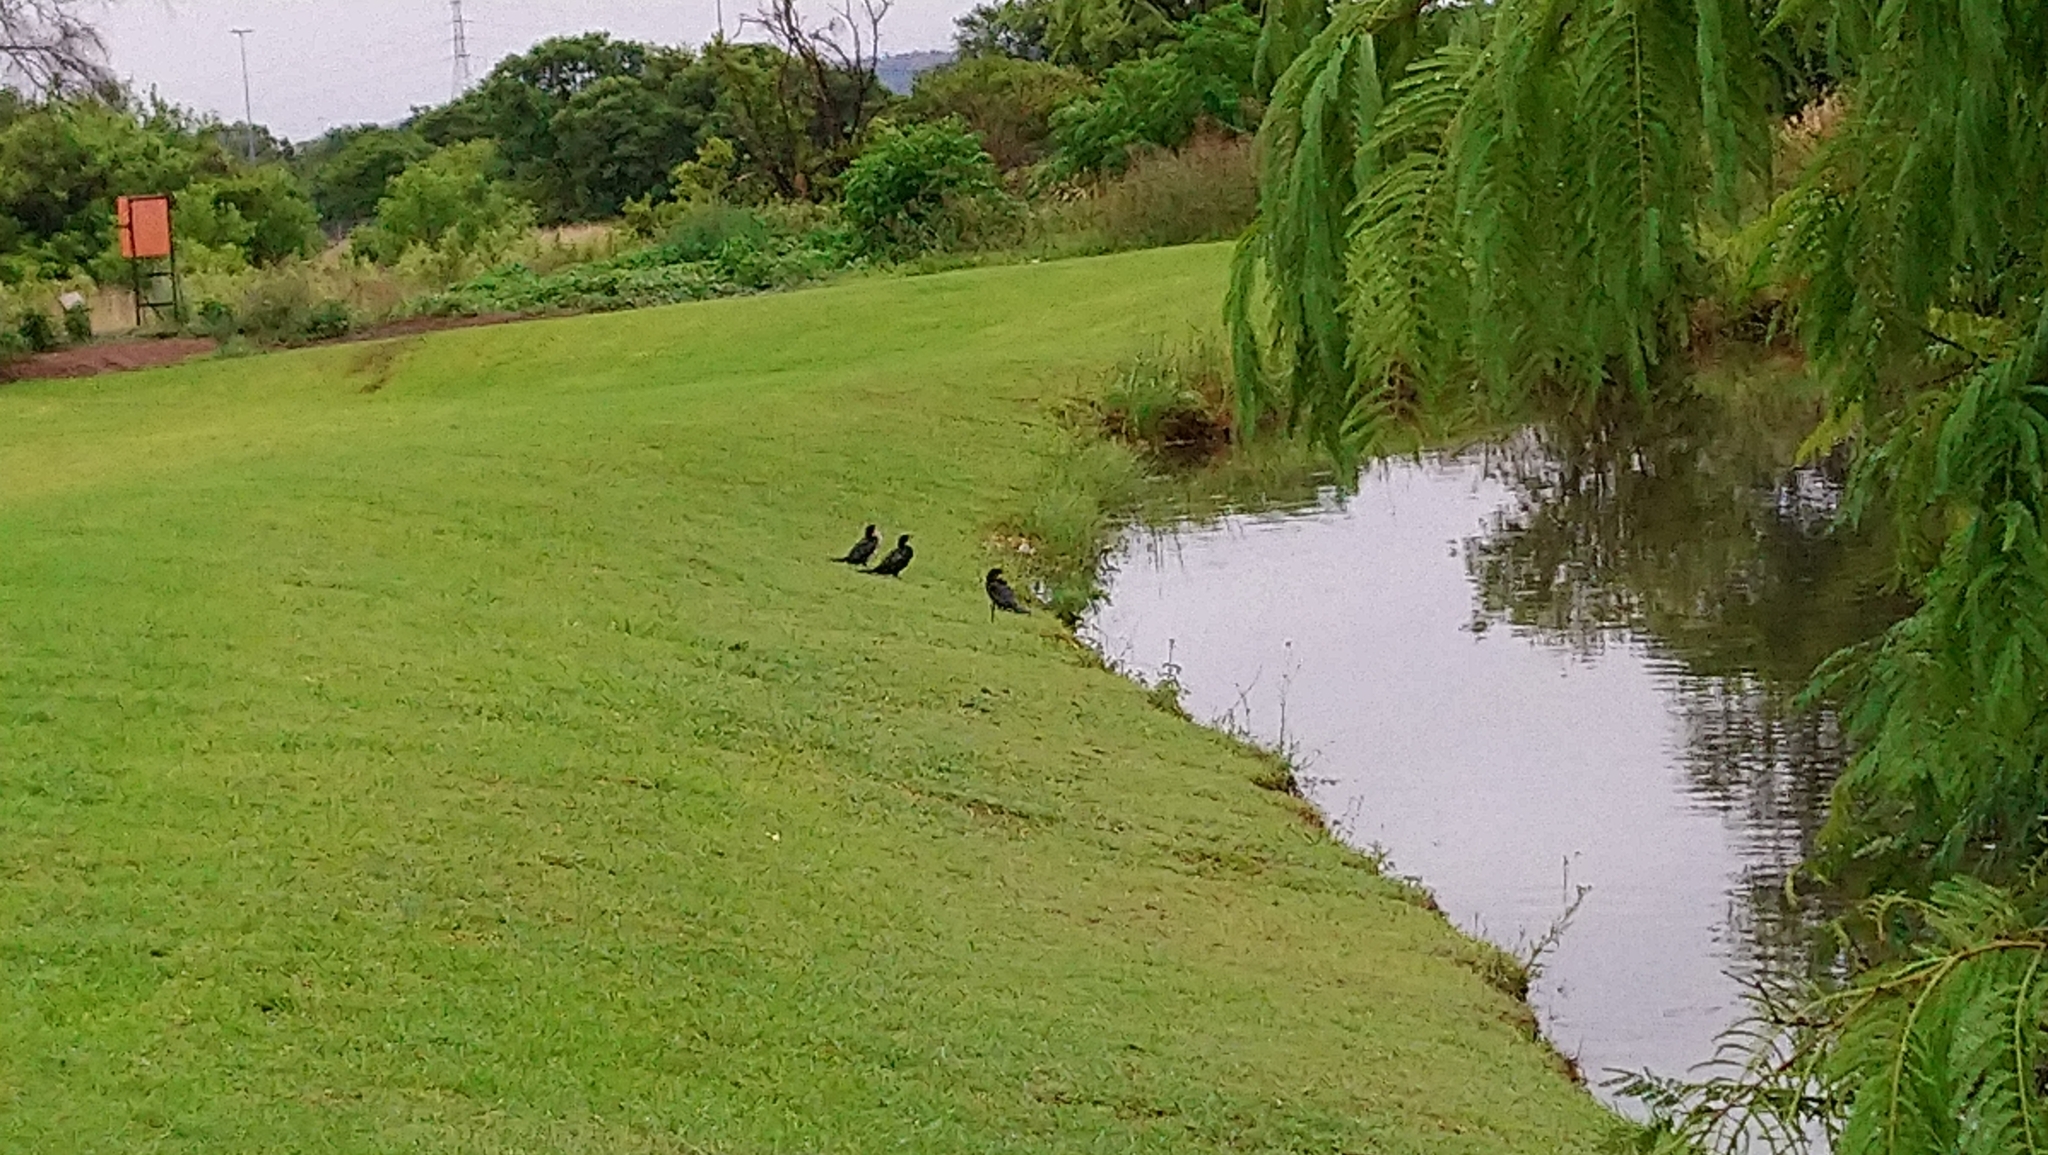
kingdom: Animalia
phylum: Chordata
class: Aves
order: Suliformes
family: Phalacrocoracidae
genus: Microcarbo
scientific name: Microcarbo africanus
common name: Long-tailed cormorant
